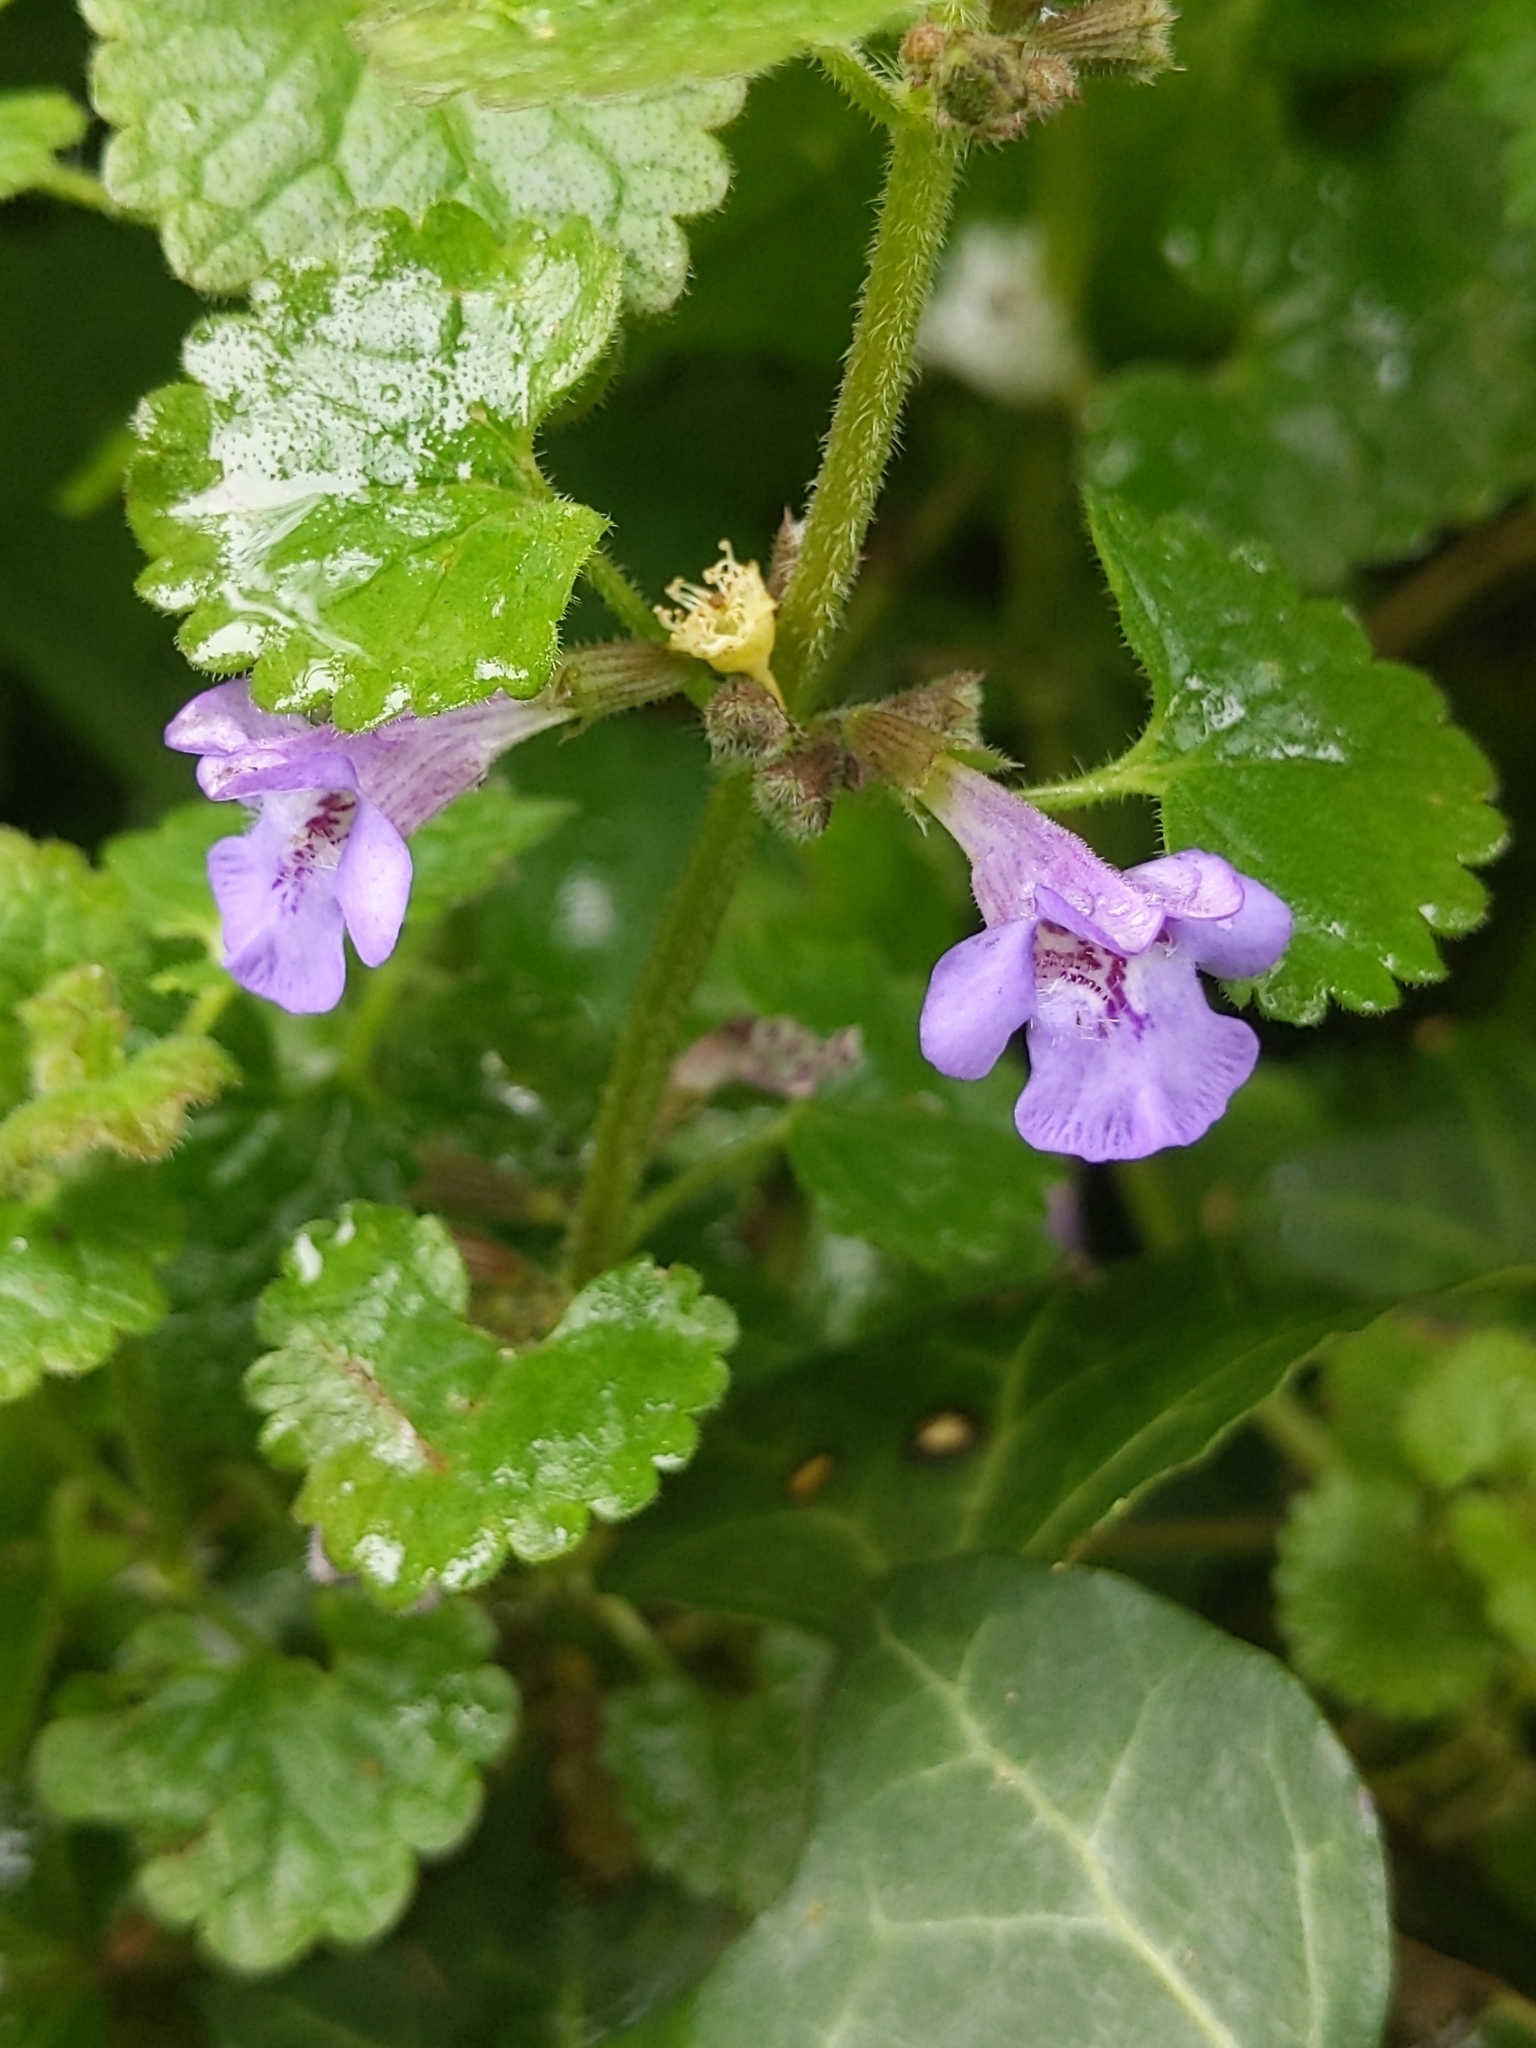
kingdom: Plantae
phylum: Tracheophyta
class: Magnoliopsida
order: Lamiales
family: Lamiaceae
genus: Glechoma
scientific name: Glechoma hederacea
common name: Ground ivy
